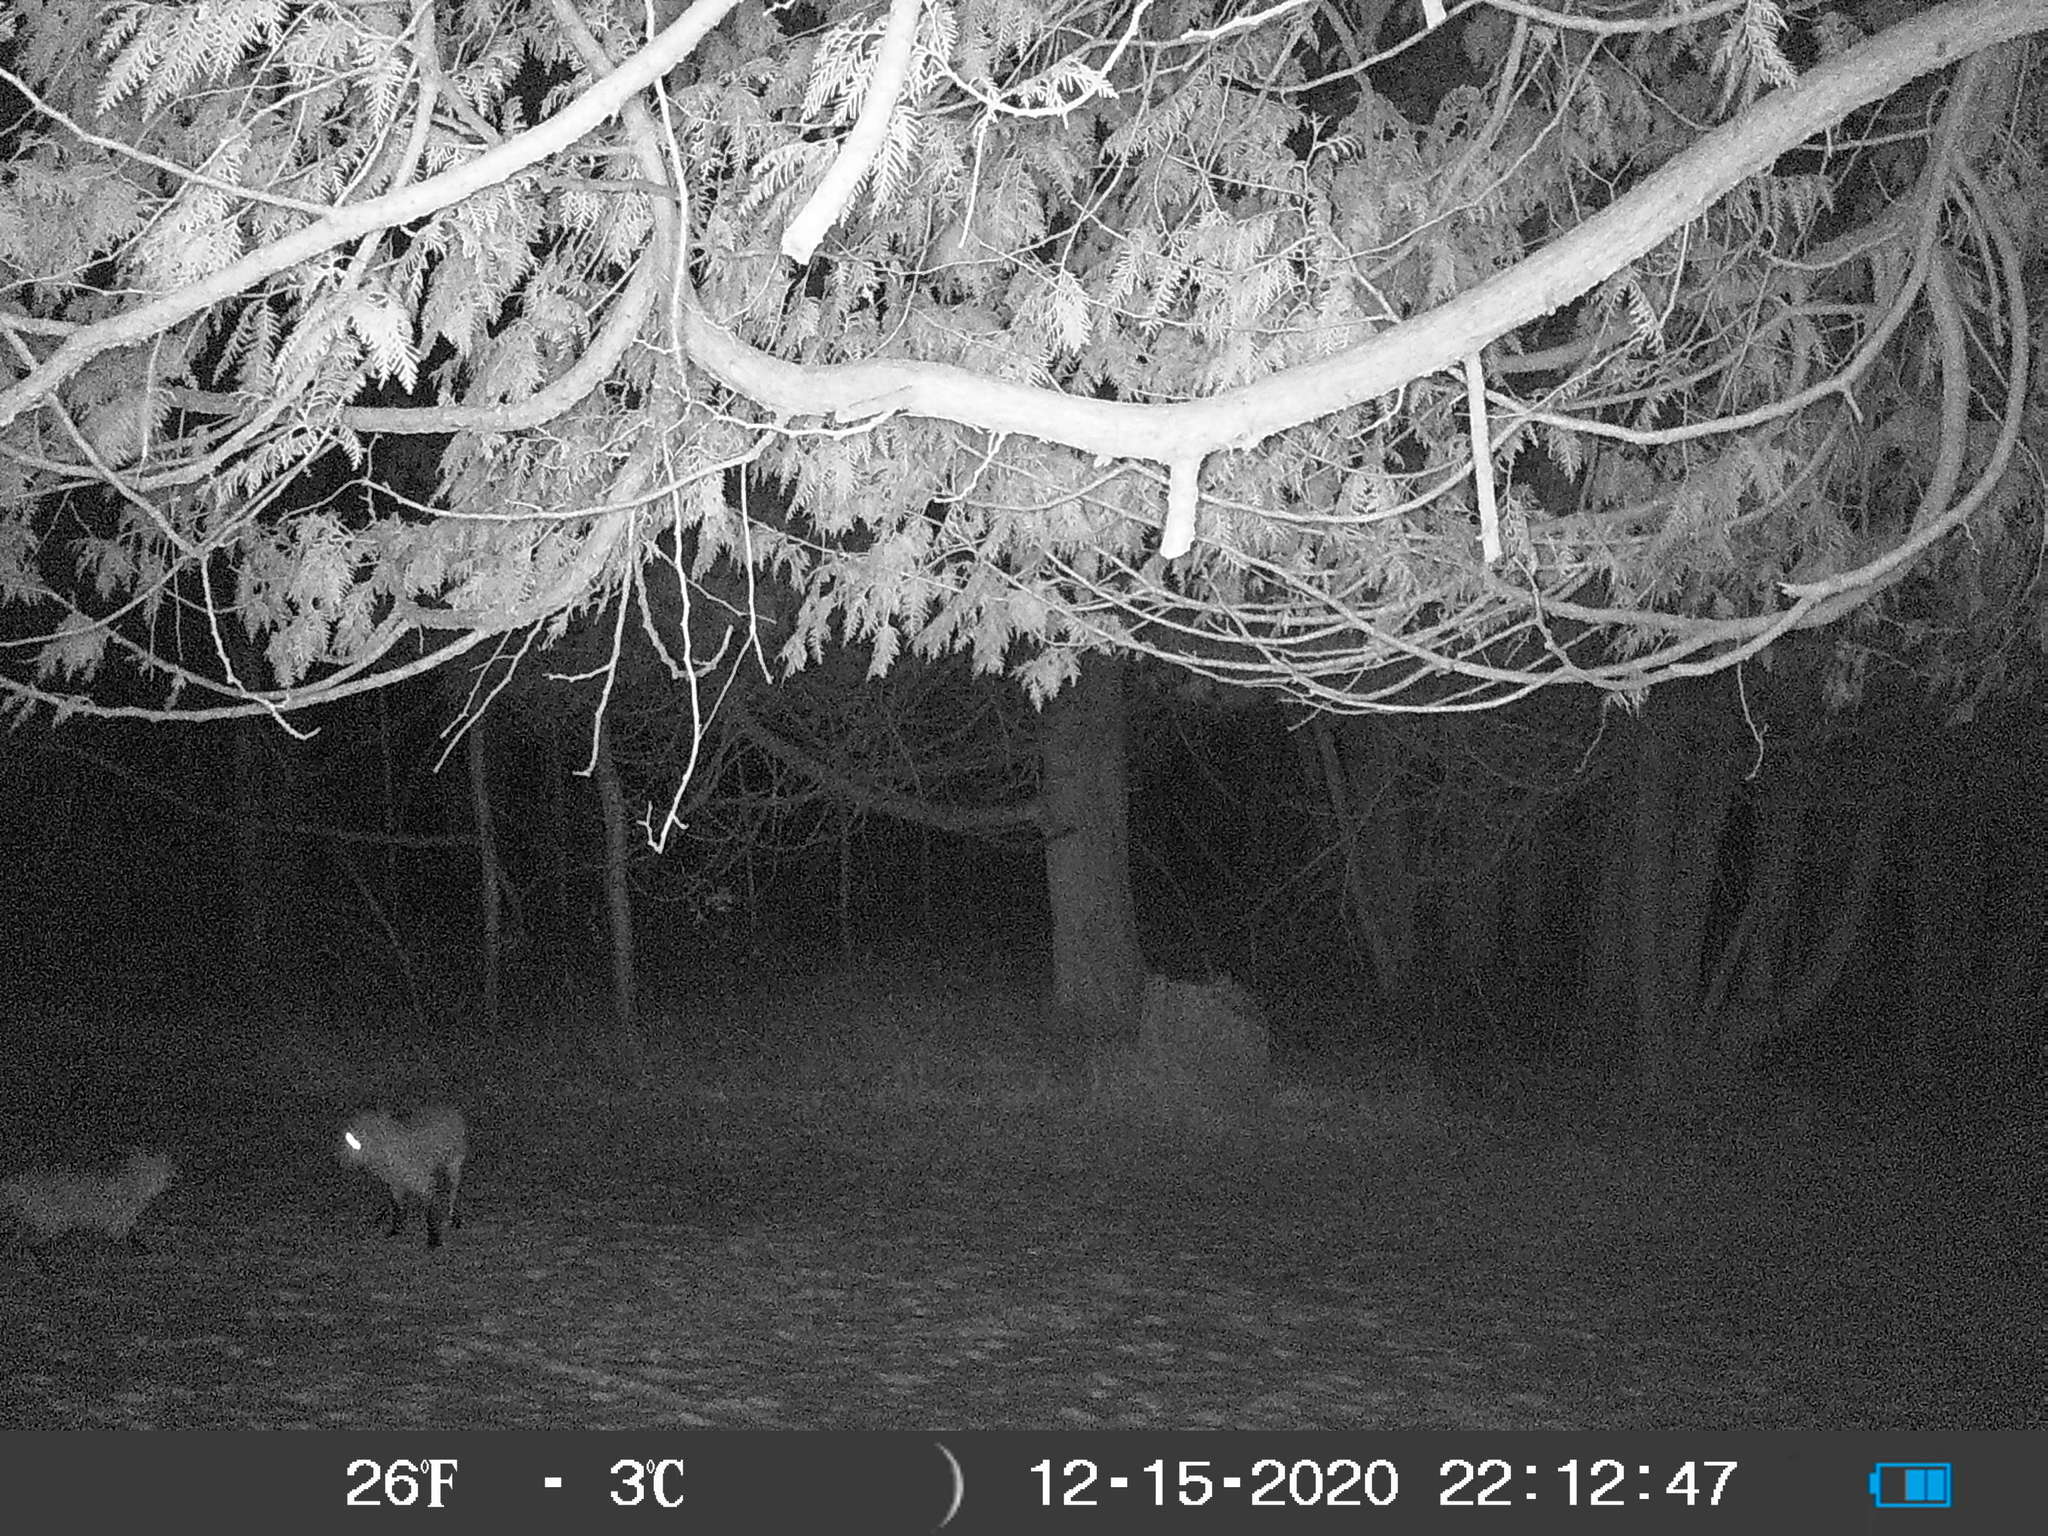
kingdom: Animalia
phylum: Chordata
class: Mammalia
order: Carnivora
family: Canidae
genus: Vulpes
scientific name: Vulpes vulpes
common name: Red fox
